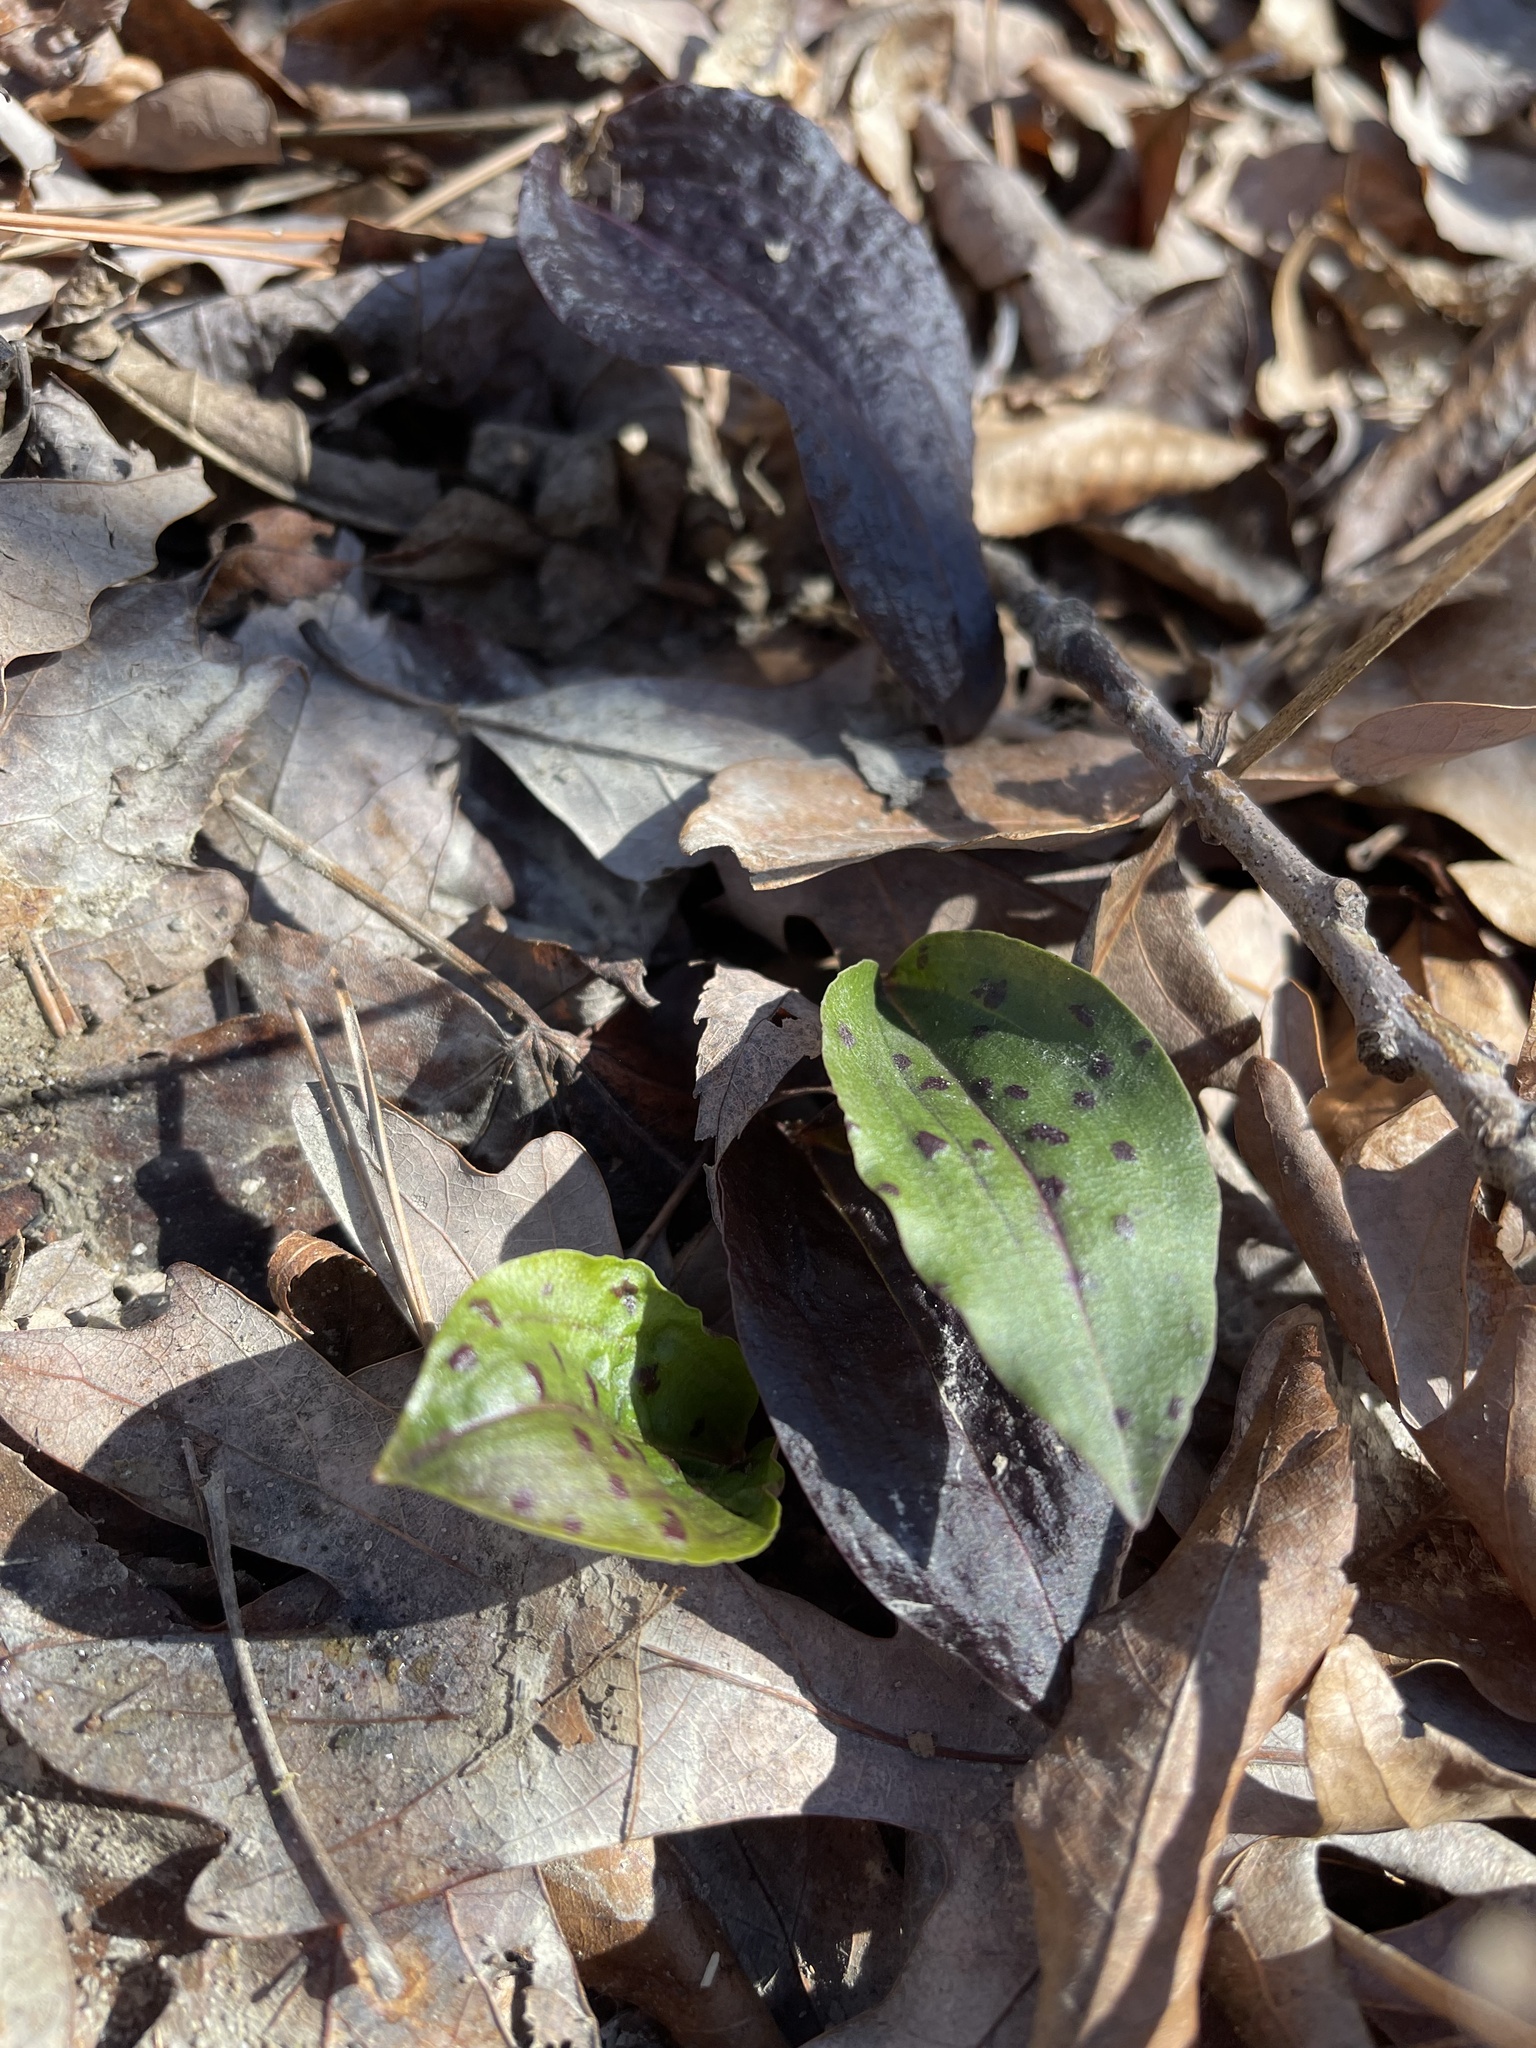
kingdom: Plantae
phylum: Tracheophyta
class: Liliopsida
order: Asparagales
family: Orchidaceae
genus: Tipularia
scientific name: Tipularia discolor
